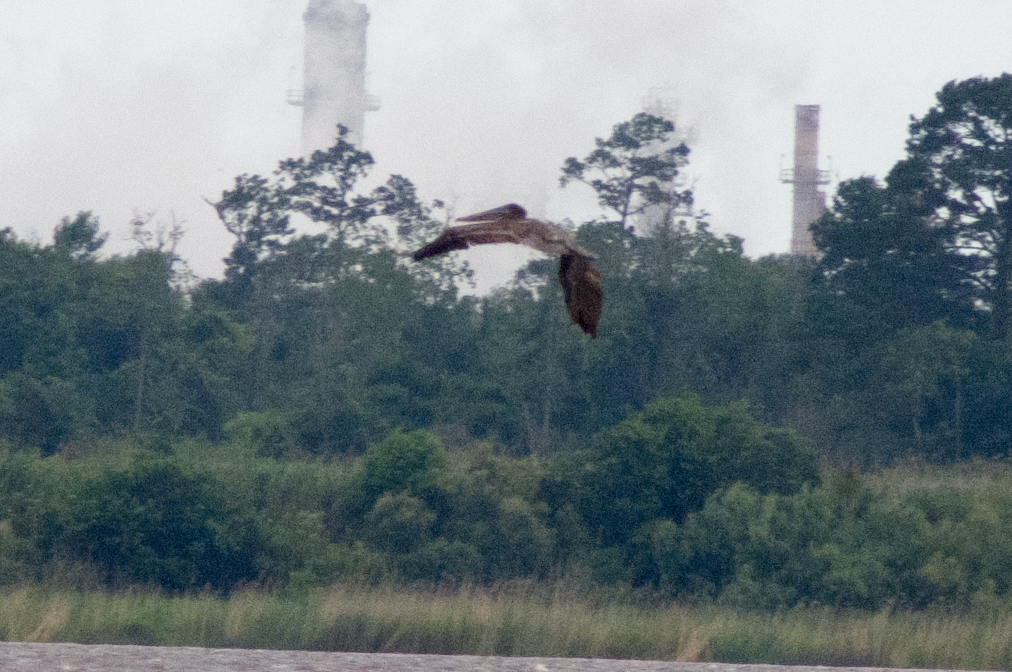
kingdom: Animalia
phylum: Chordata
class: Aves
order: Pelecaniformes
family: Pelecanidae
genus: Pelecanus
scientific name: Pelecanus occidentalis
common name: Brown pelican
